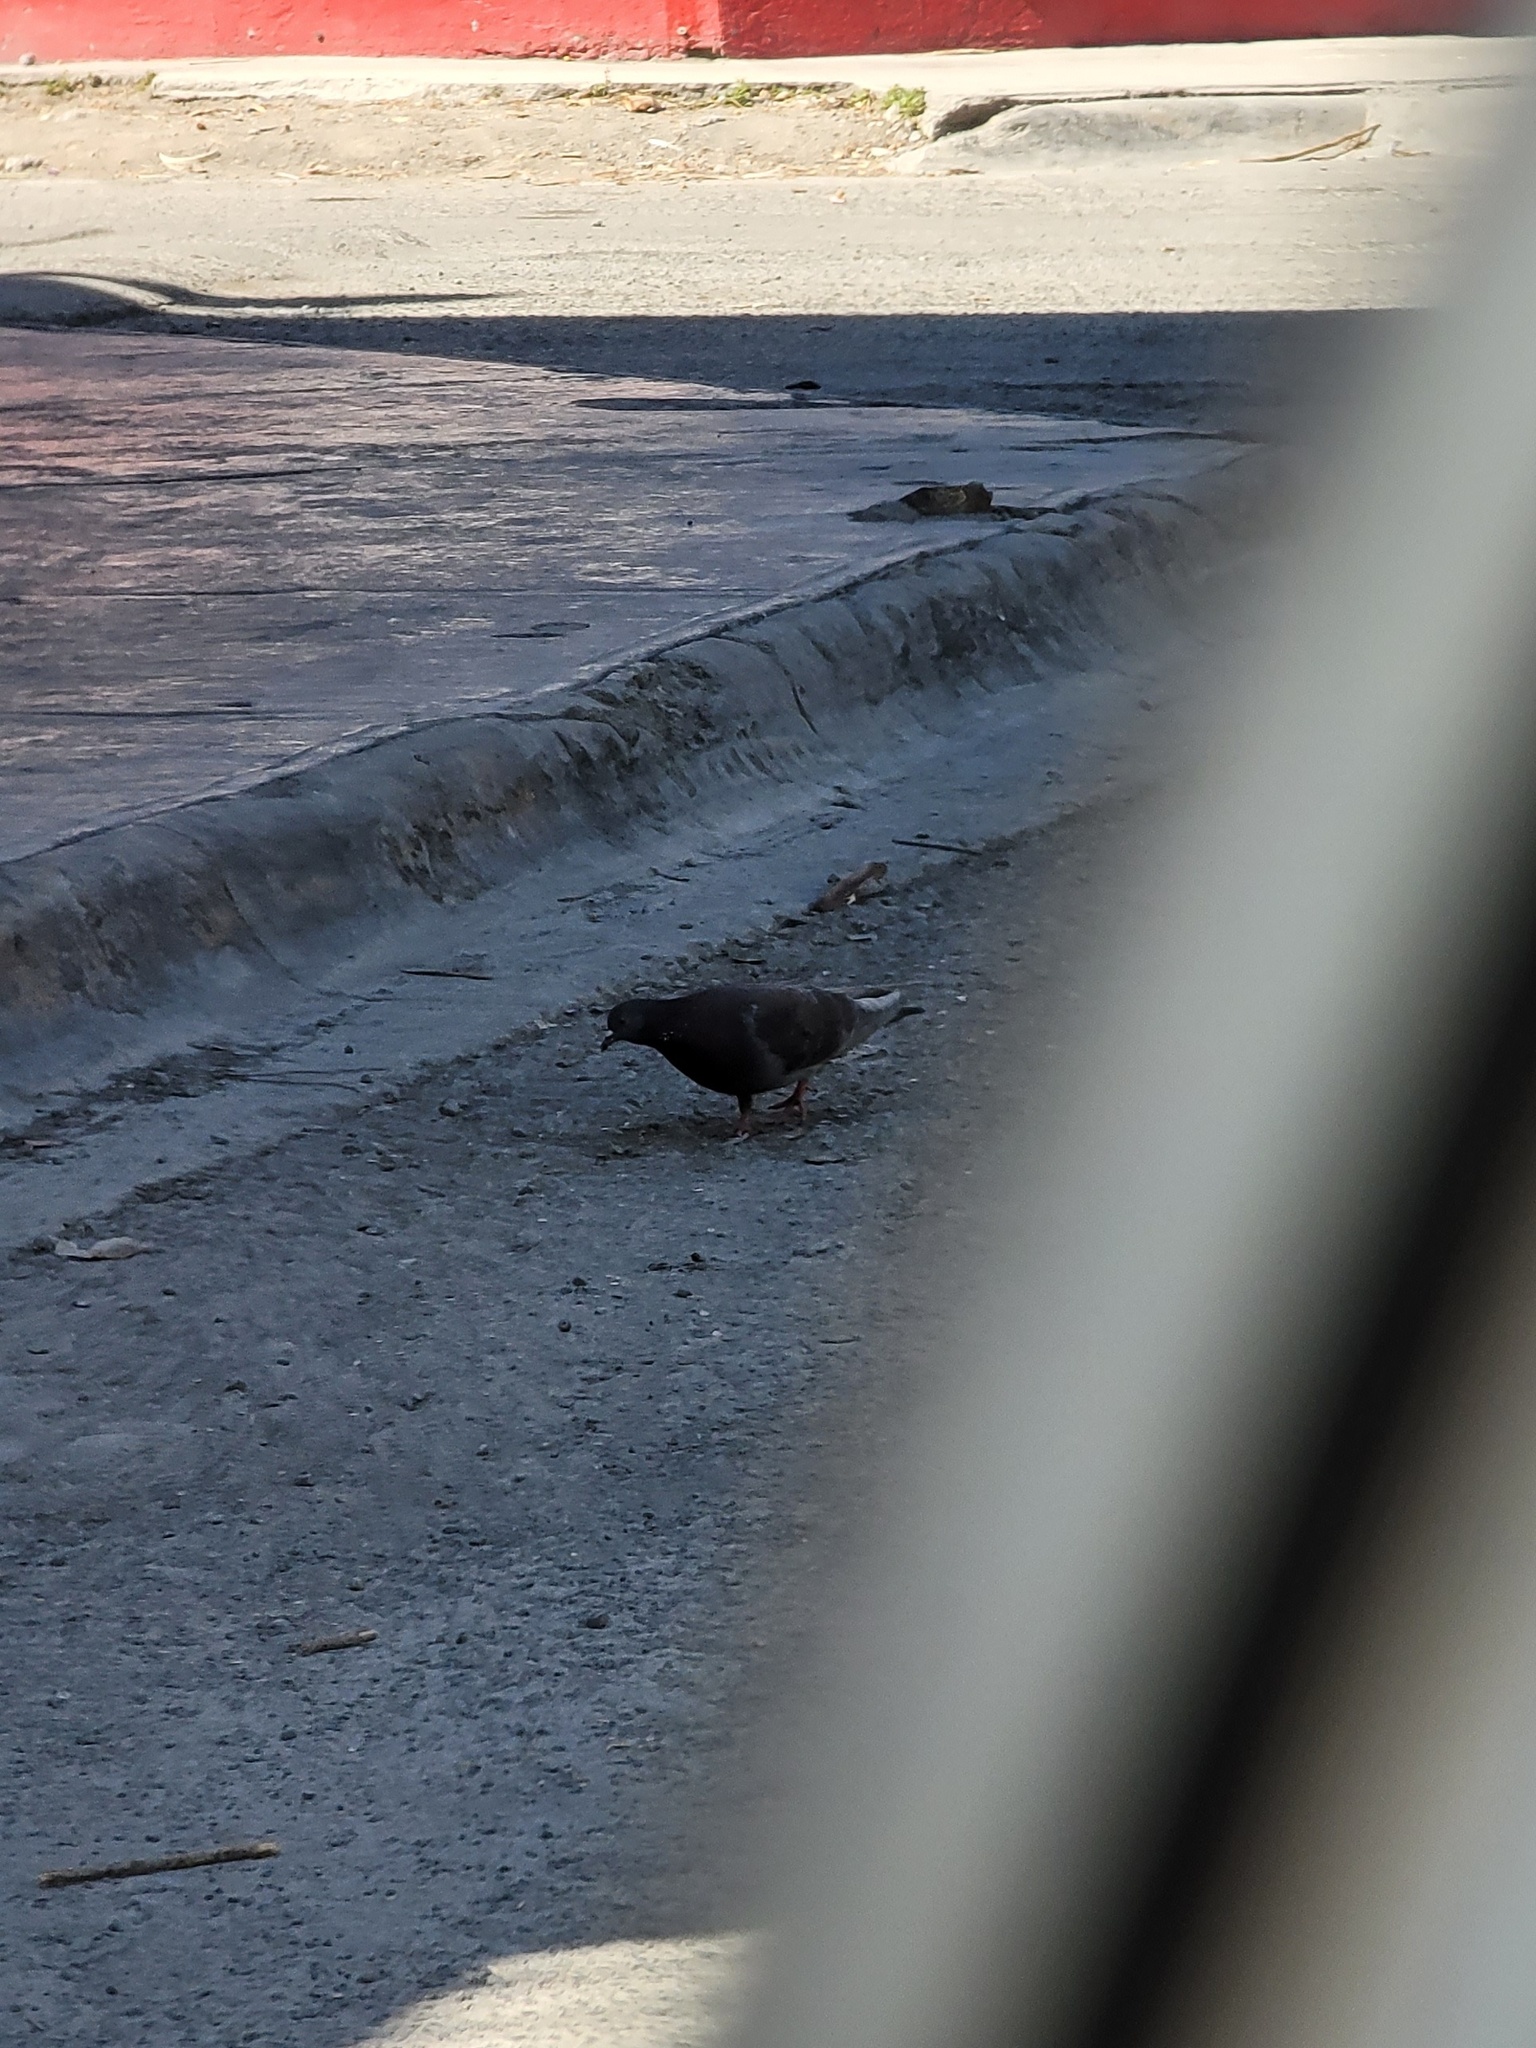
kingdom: Animalia
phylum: Chordata
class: Aves
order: Columbiformes
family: Columbidae
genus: Columba
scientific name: Columba livia
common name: Rock pigeon
